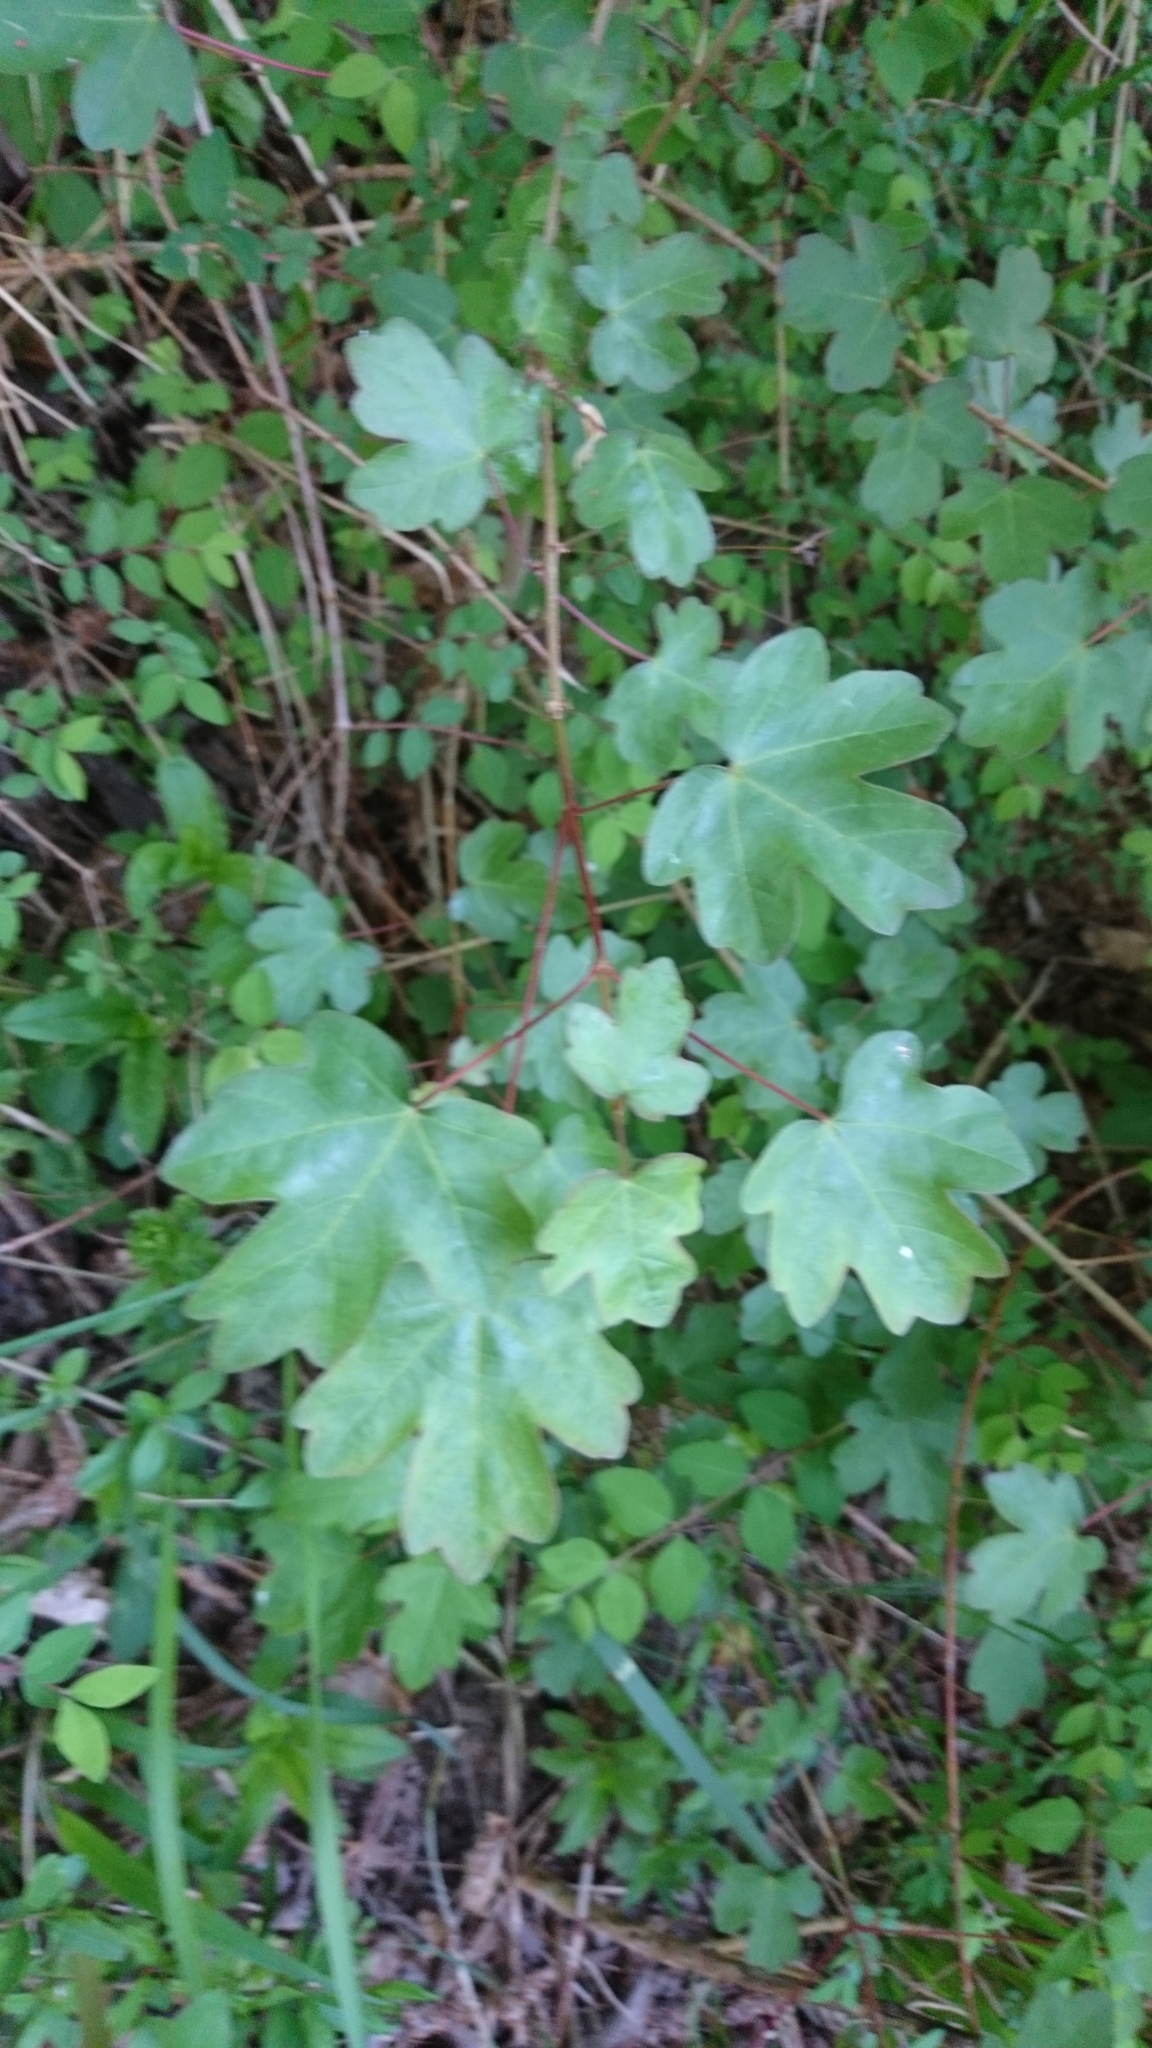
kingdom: Plantae
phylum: Tracheophyta
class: Magnoliopsida
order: Sapindales
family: Sapindaceae
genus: Acer
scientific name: Acer campestre
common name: Field maple
